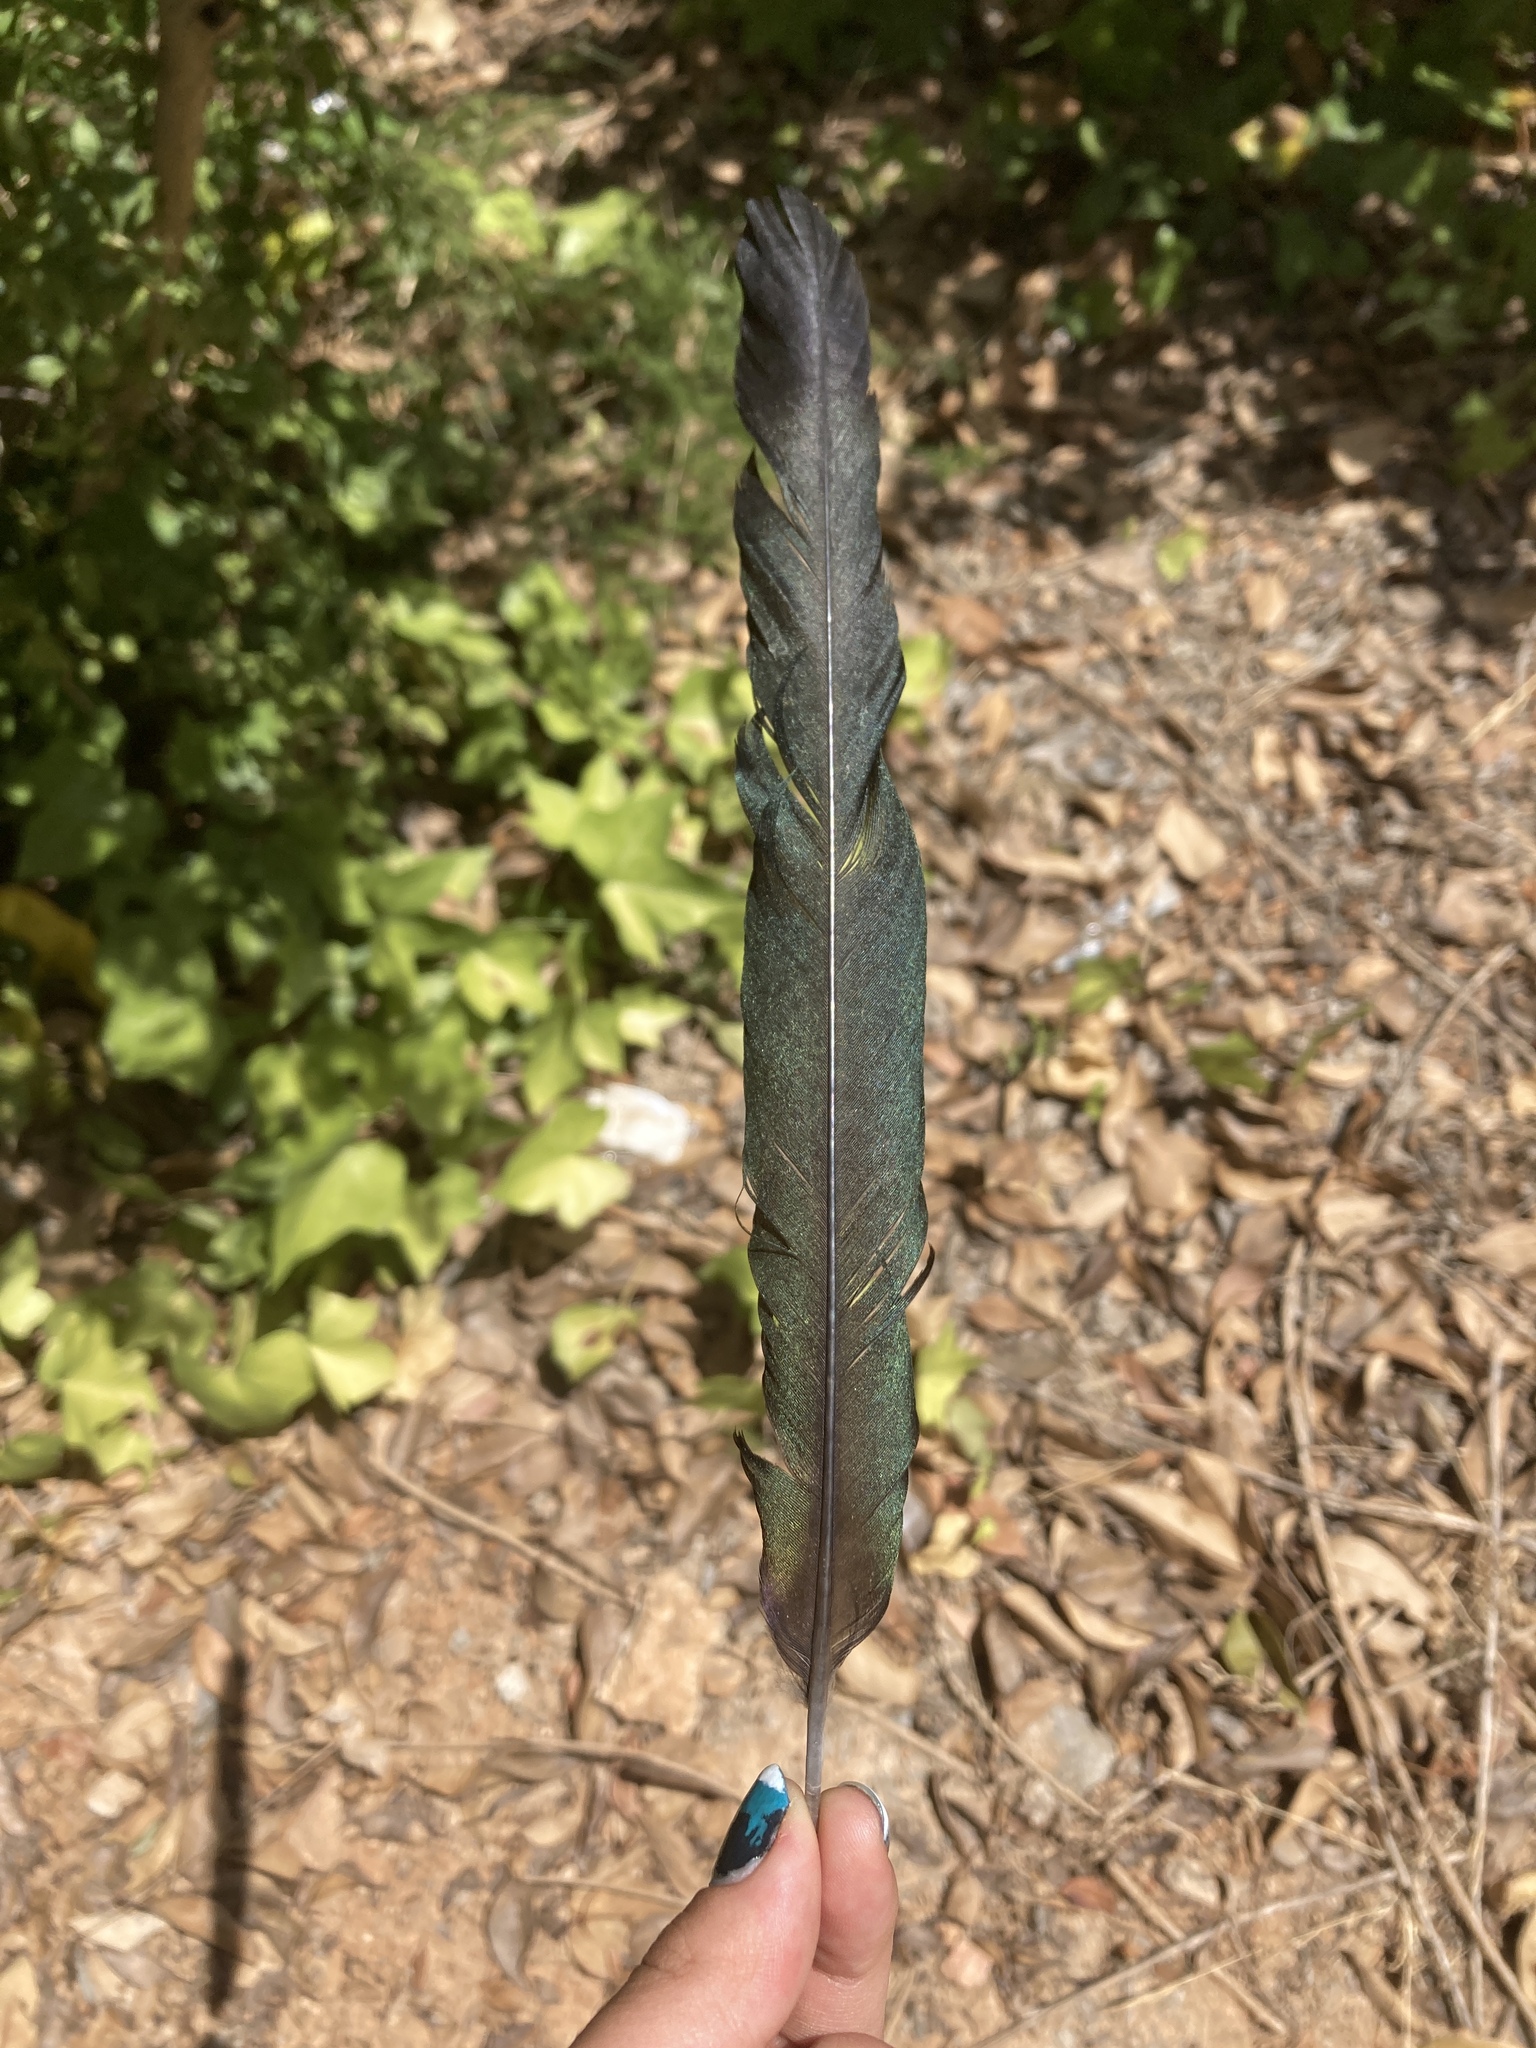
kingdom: Animalia
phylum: Chordata
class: Aves
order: Passeriformes
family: Corvidae
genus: Pica
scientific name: Pica pica
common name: Eurasian magpie
